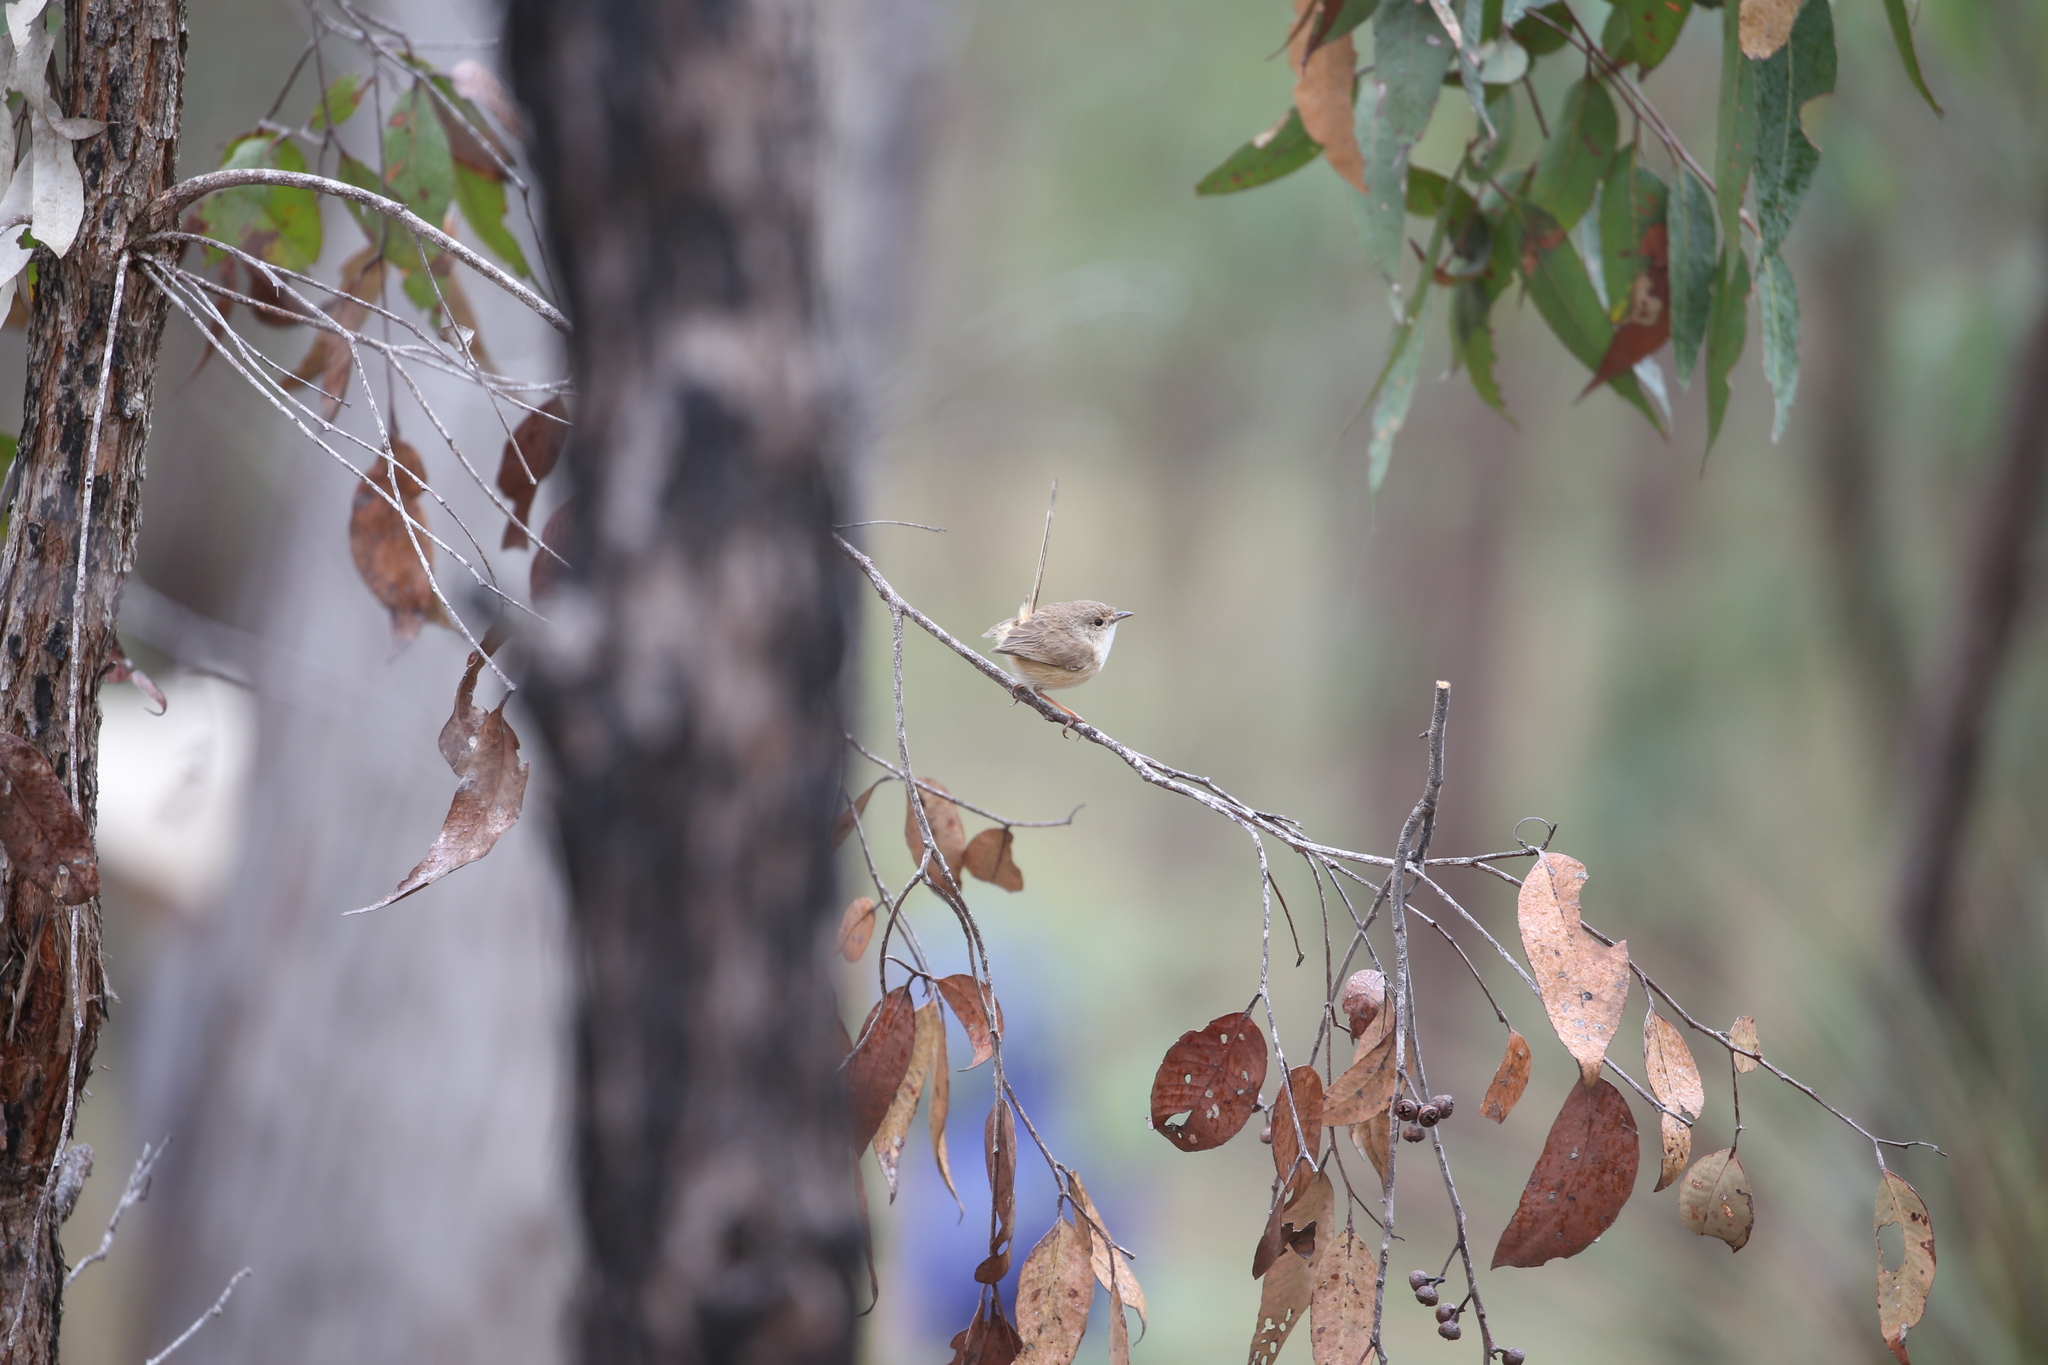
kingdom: Animalia
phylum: Chordata
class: Aves
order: Passeriformes
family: Maluridae
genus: Malurus
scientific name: Malurus melanocephalus
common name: Red-backed fairywren
